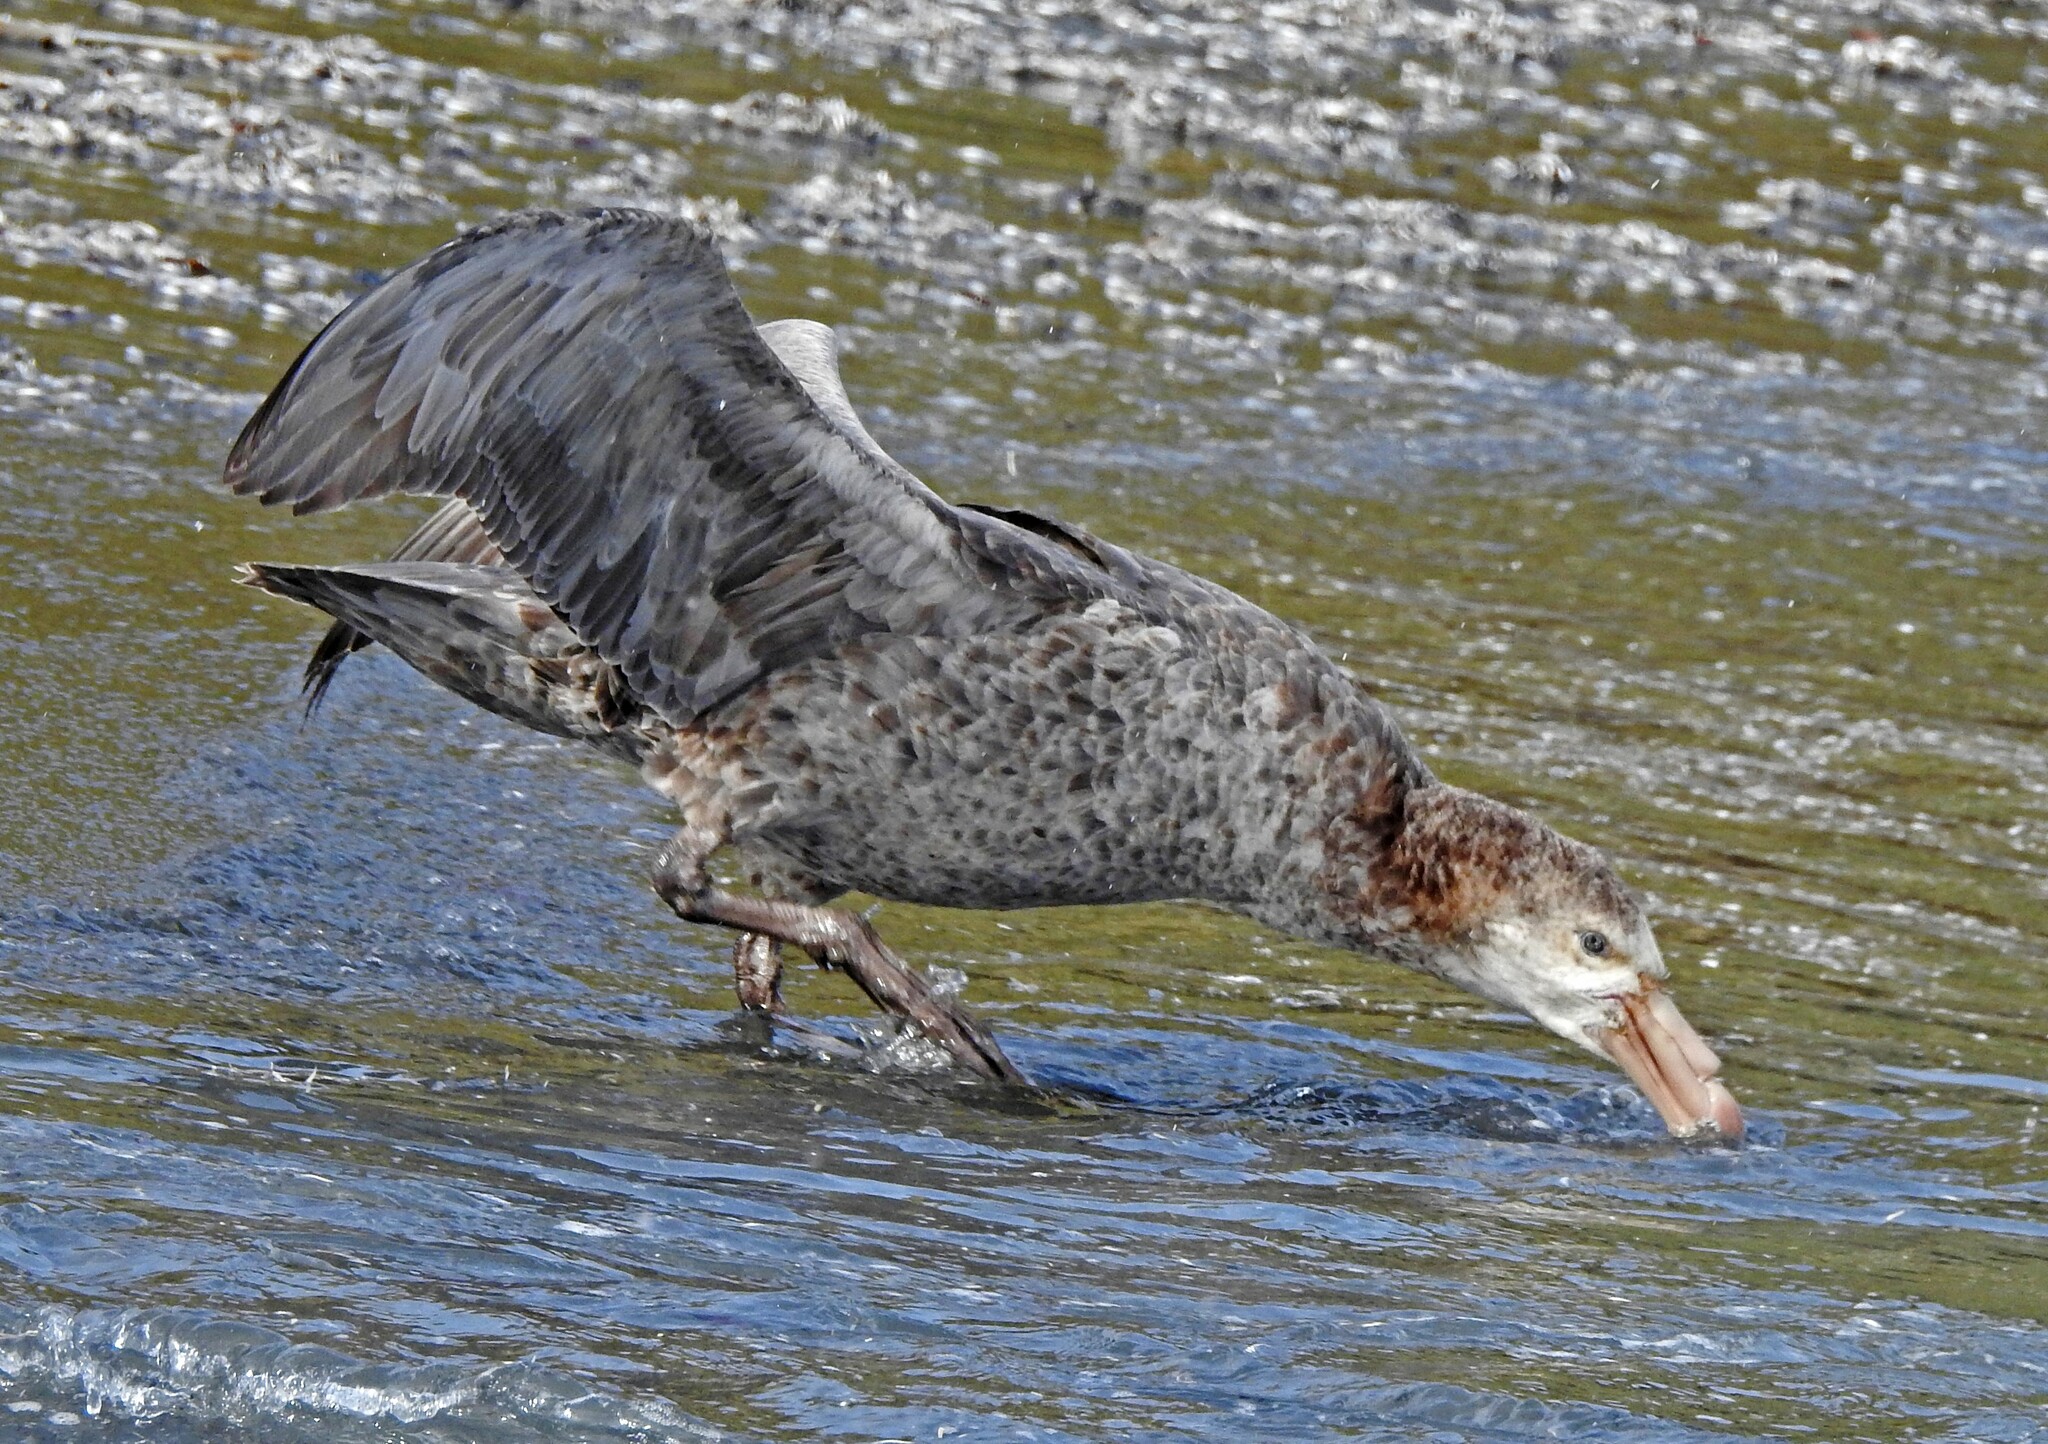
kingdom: Animalia
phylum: Chordata
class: Aves
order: Procellariiformes
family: Procellariidae
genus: Macronectes
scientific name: Macronectes halli
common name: Northern giant petrel
